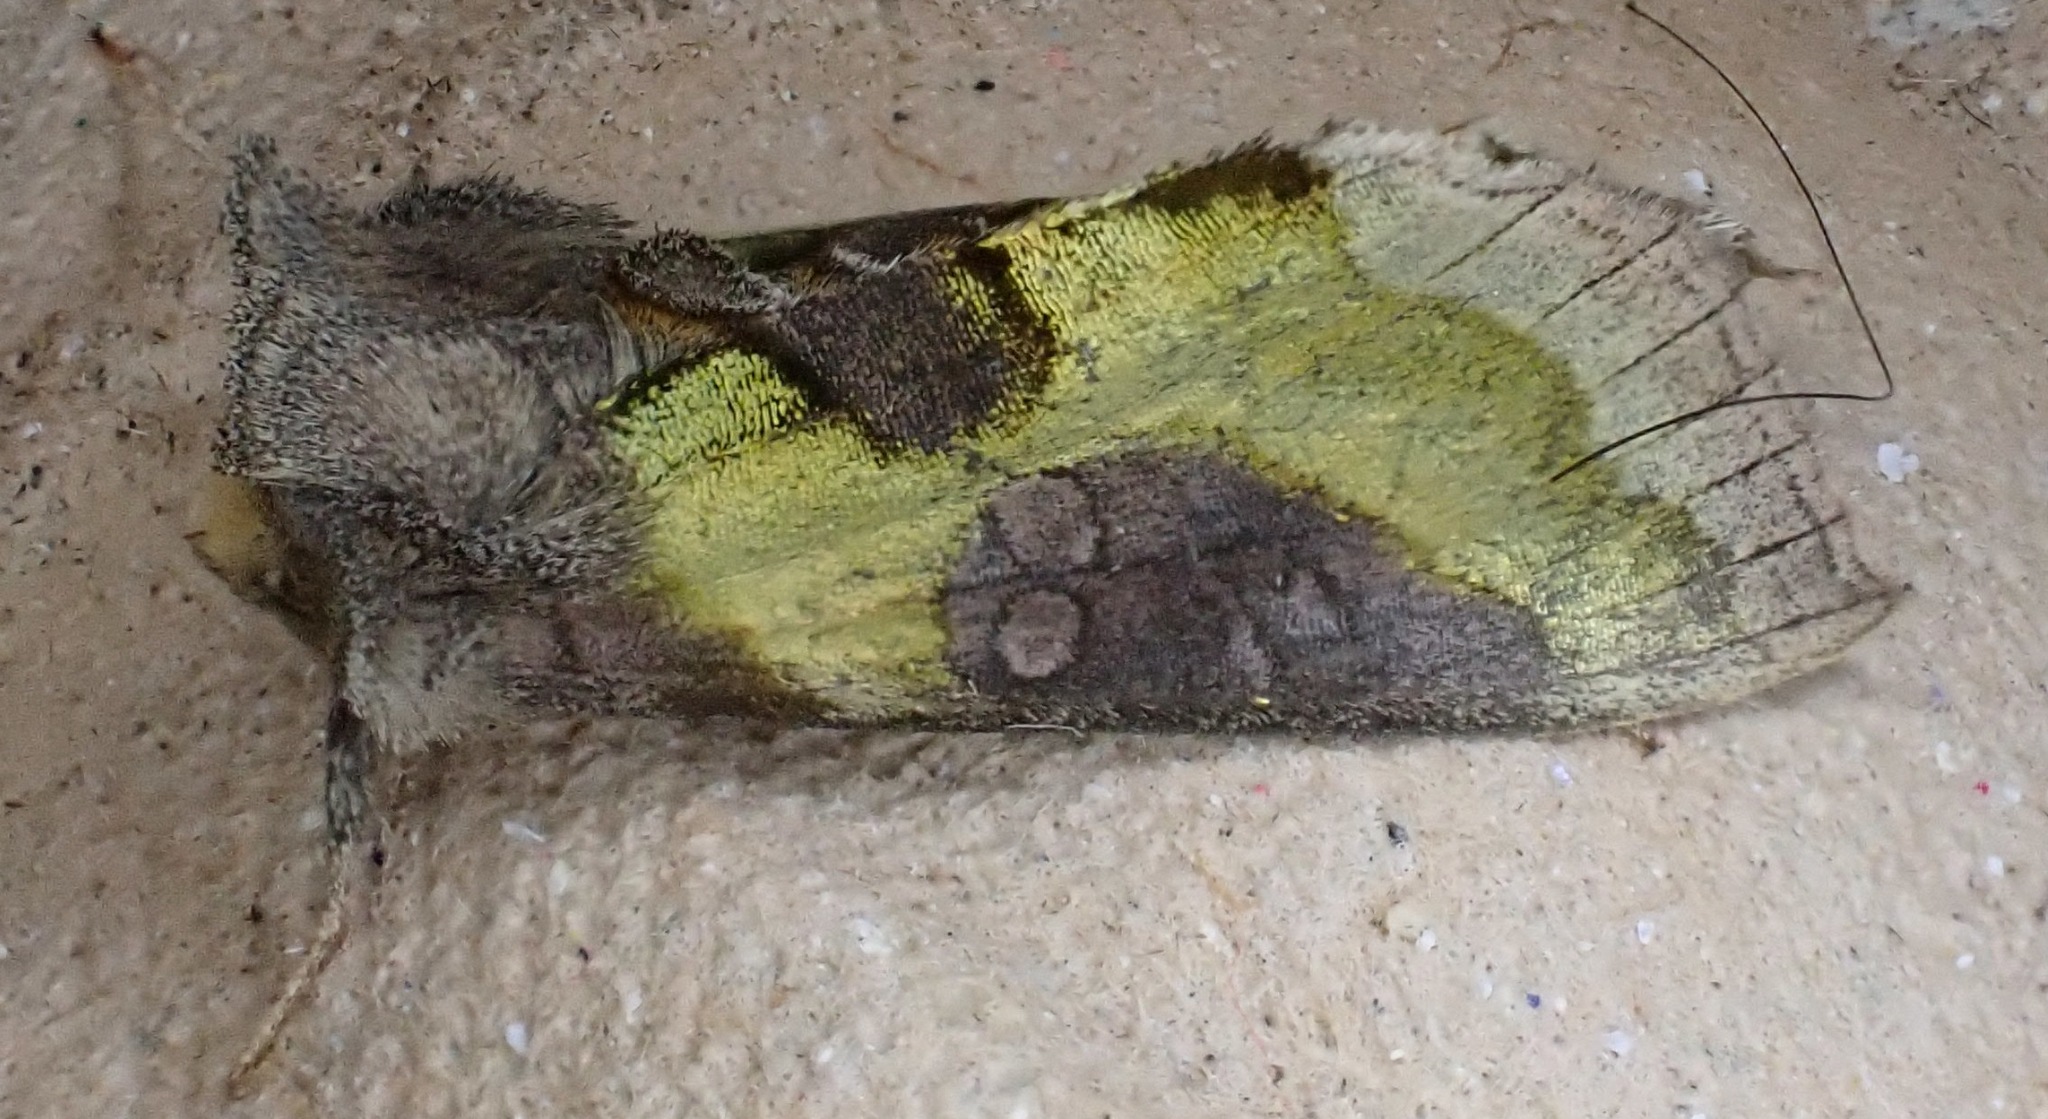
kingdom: Animalia
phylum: Arthropoda
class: Insecta
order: Lepidoptera
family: Noctuidae
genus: Diachrysia
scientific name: Diachrysia chrysitis
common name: Burnished brass
